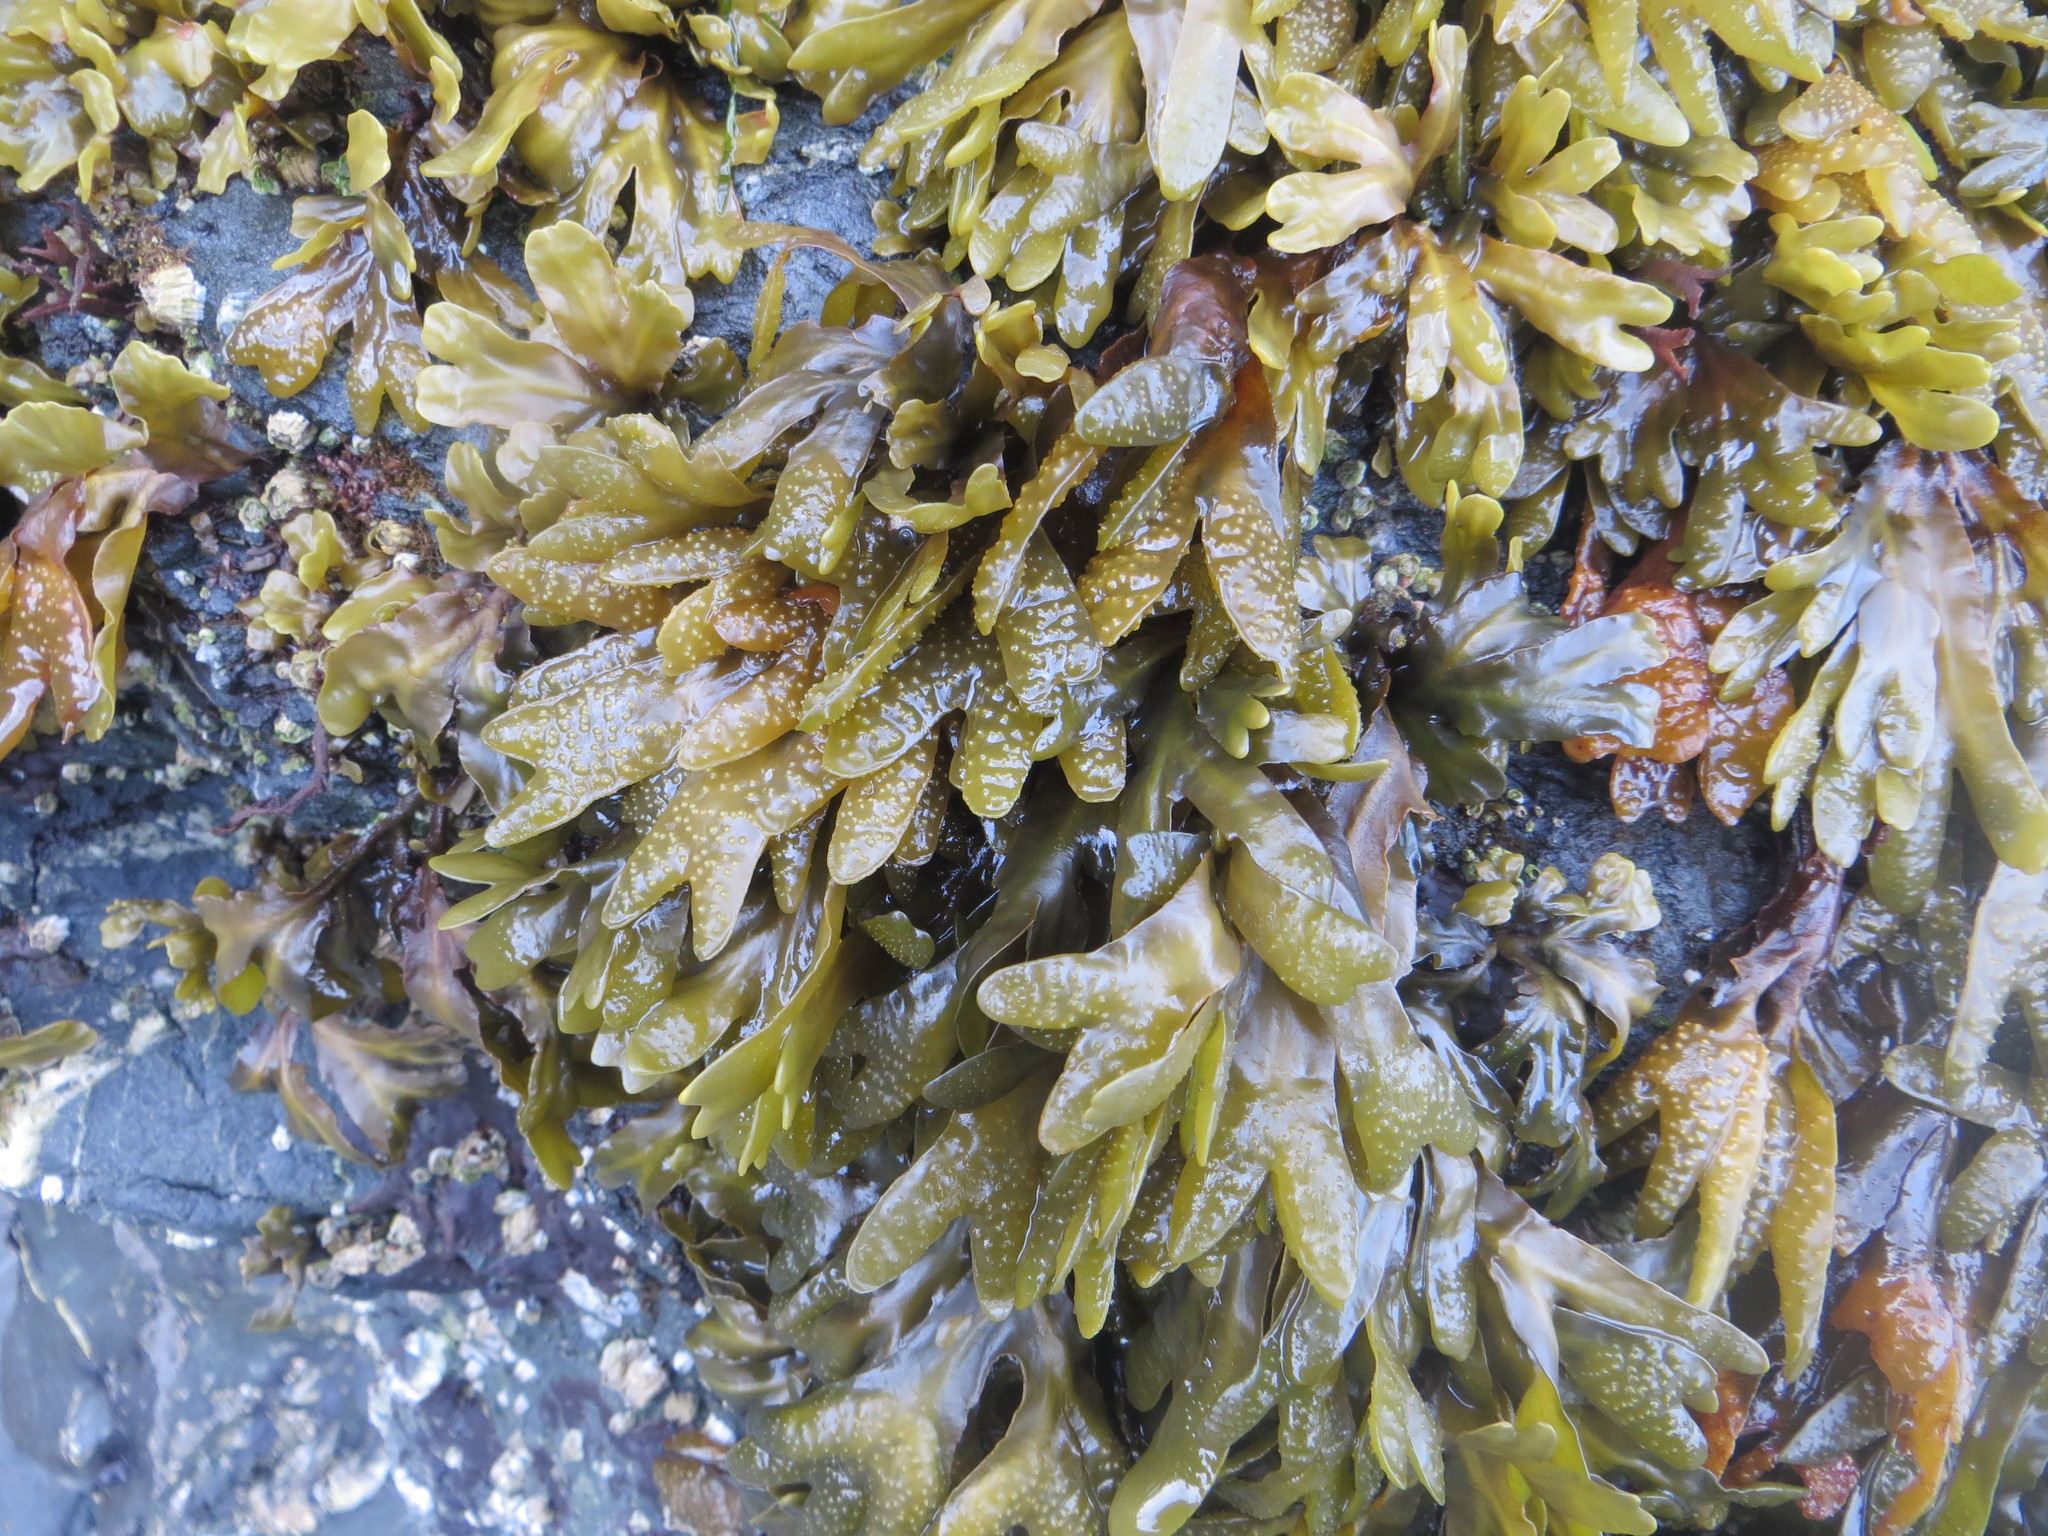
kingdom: Chromista
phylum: Ochrophyta
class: Phaeophyceae
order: Fucales
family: Fucaceae
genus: Fucus
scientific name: Fucus distichus
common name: Rockweed
